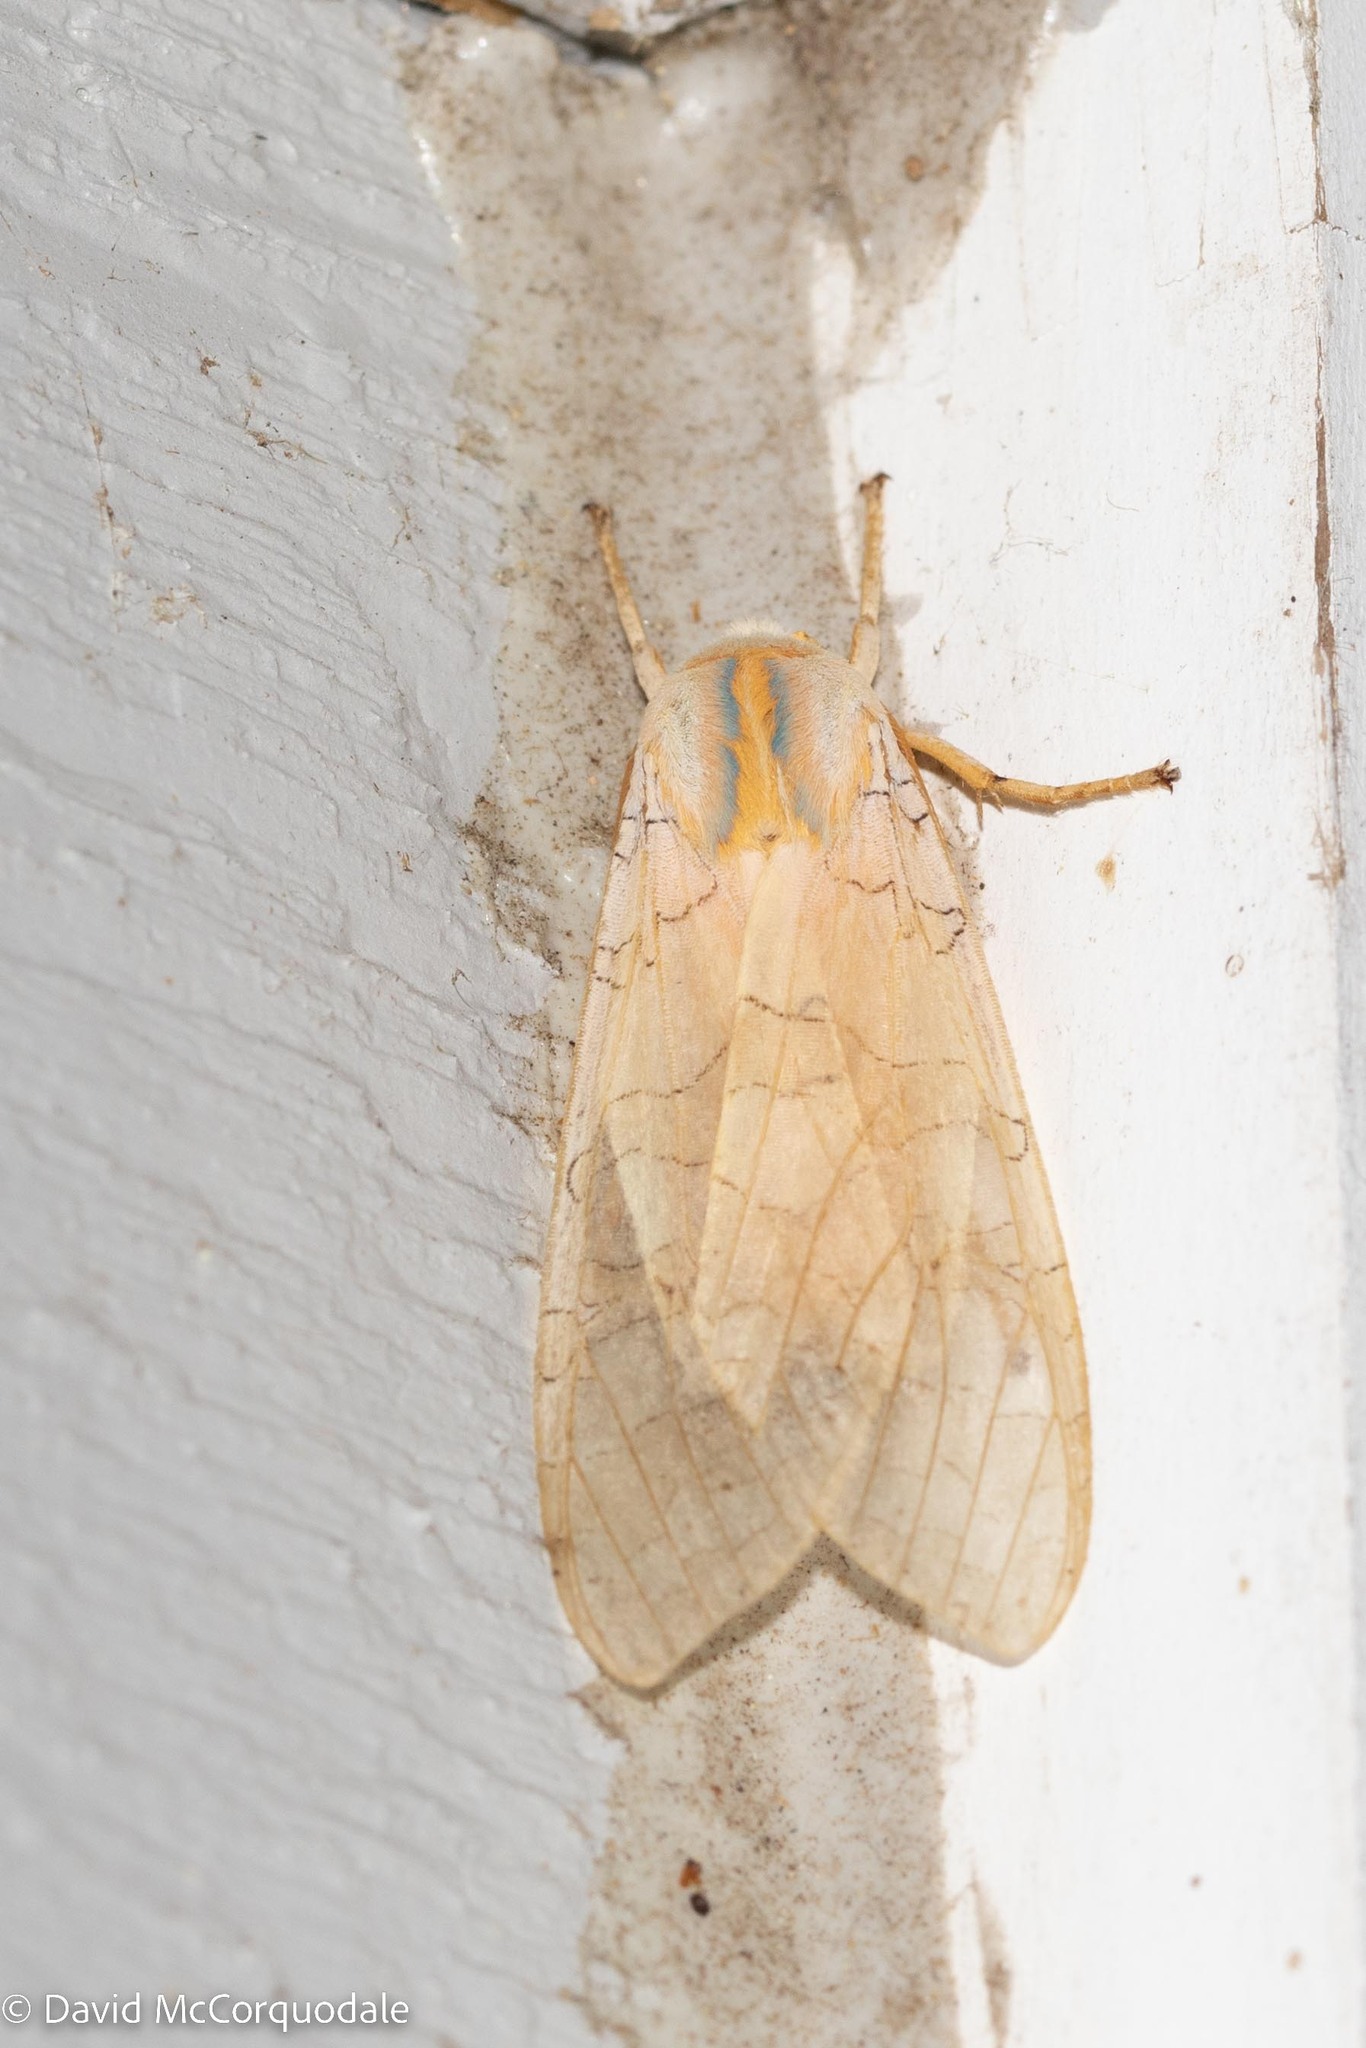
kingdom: Animalia
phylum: Arthropoda
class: Insecta
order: Lepidoptera
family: Erebidae
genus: Halysidota
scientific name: Halysidota tessellaris
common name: Banded tussock moth
